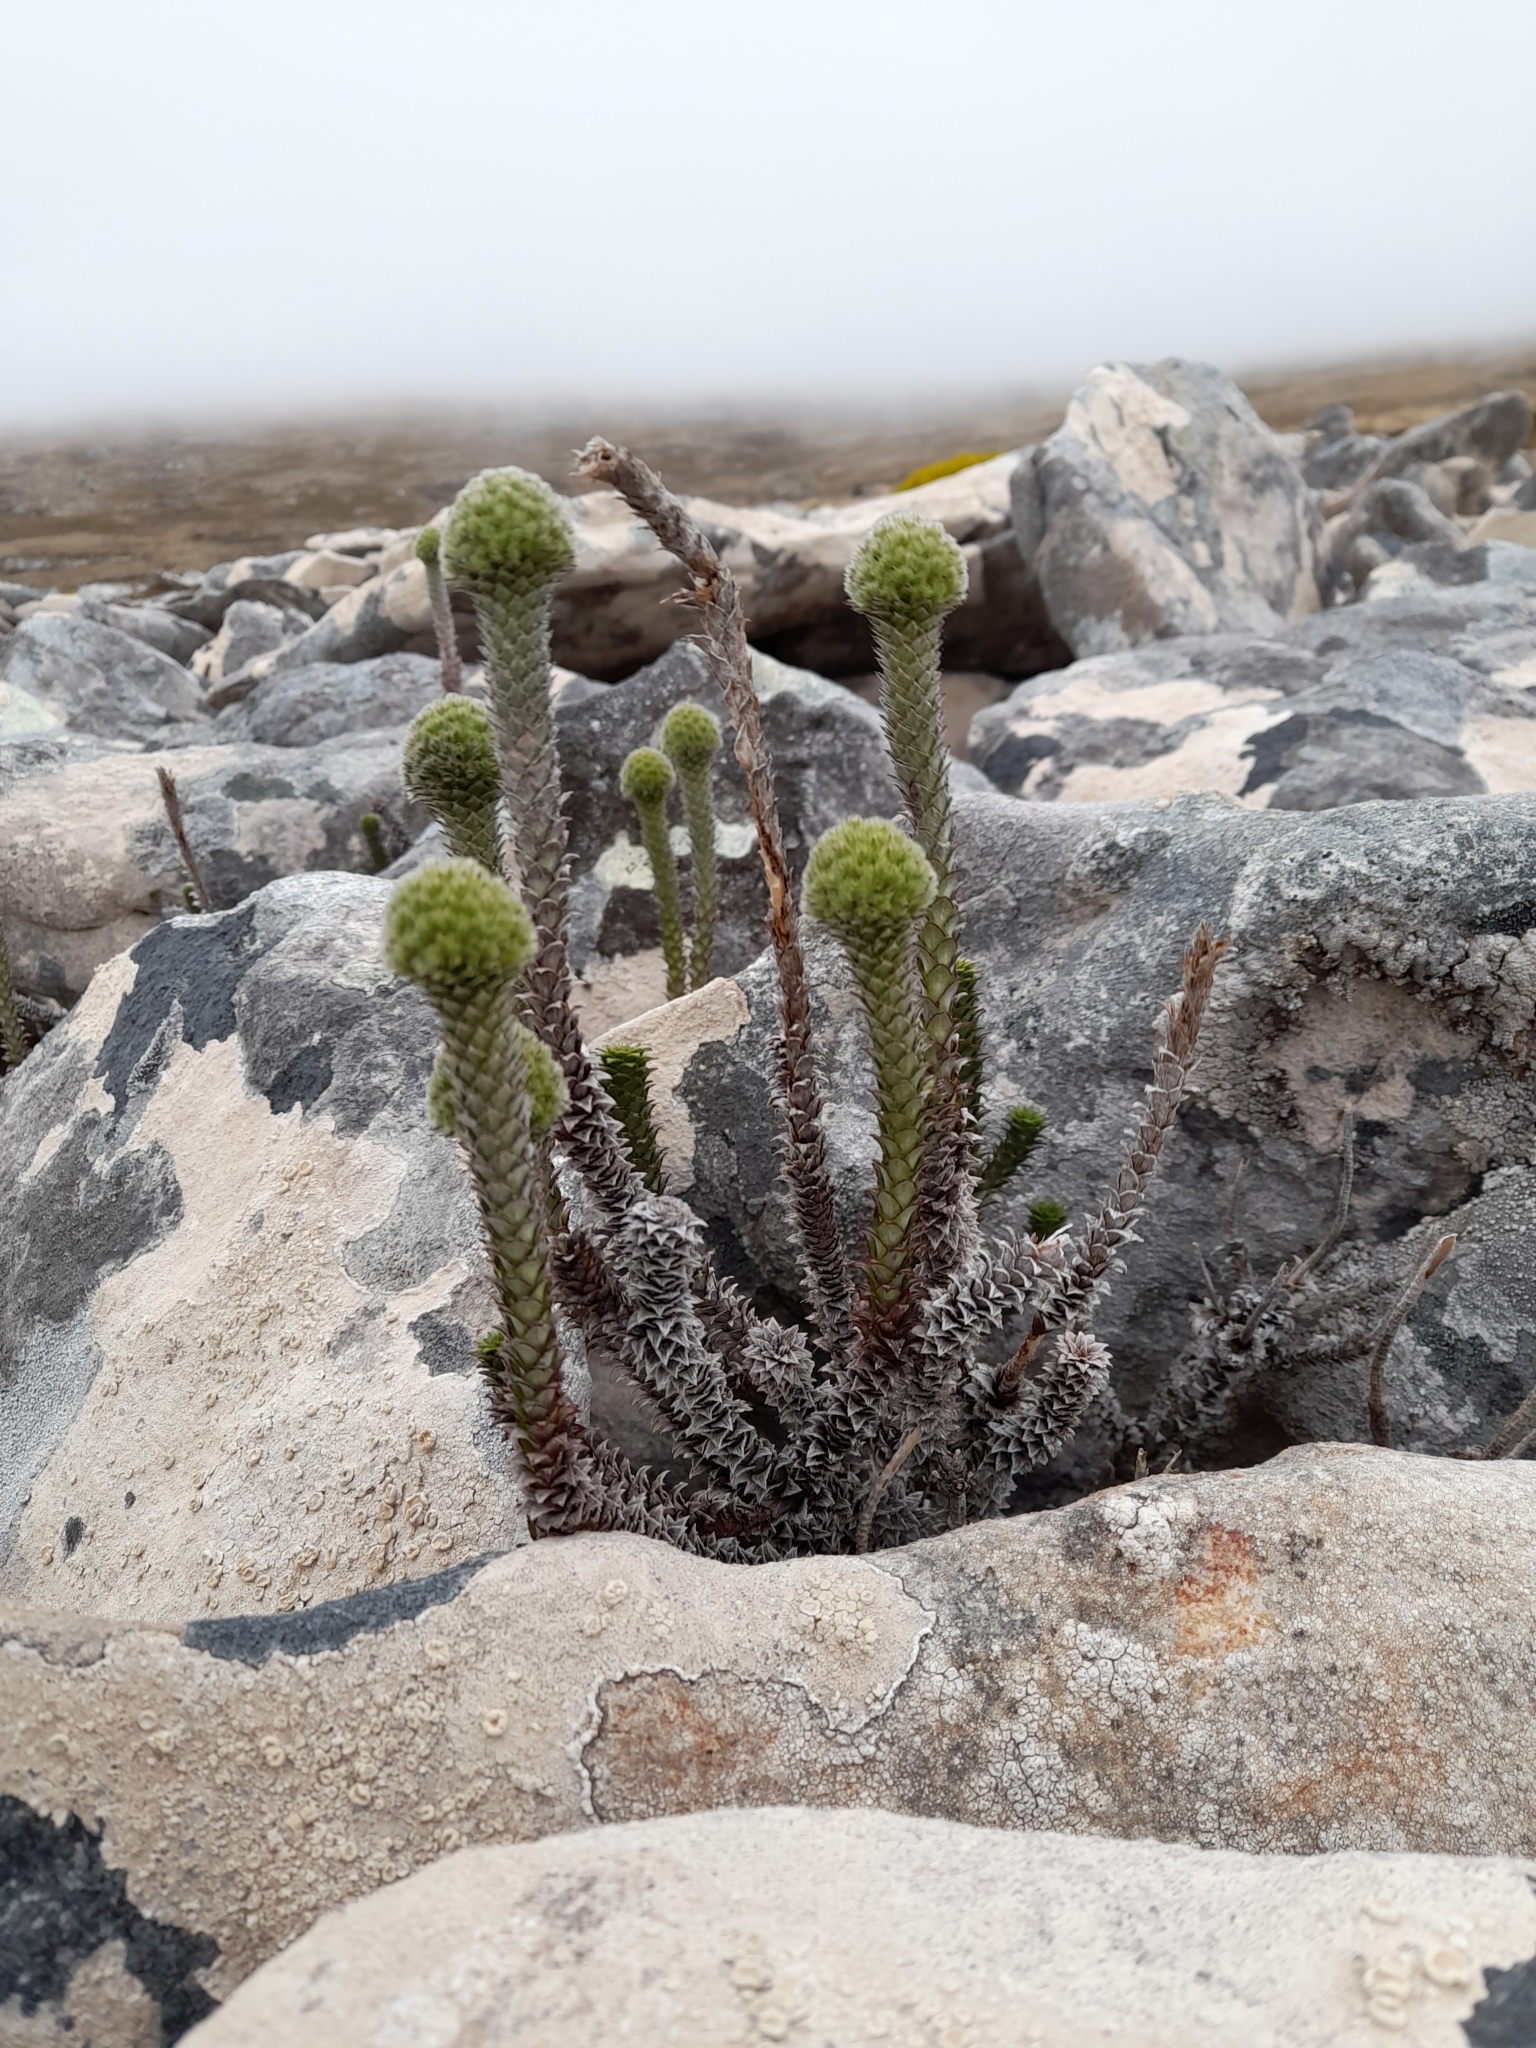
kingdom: Plantae
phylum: Tracheophyta
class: Magnoliopsida
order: Asterales
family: Asteraceae
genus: Nassauvia
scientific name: Nassauvia serpens
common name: Snakeplant
